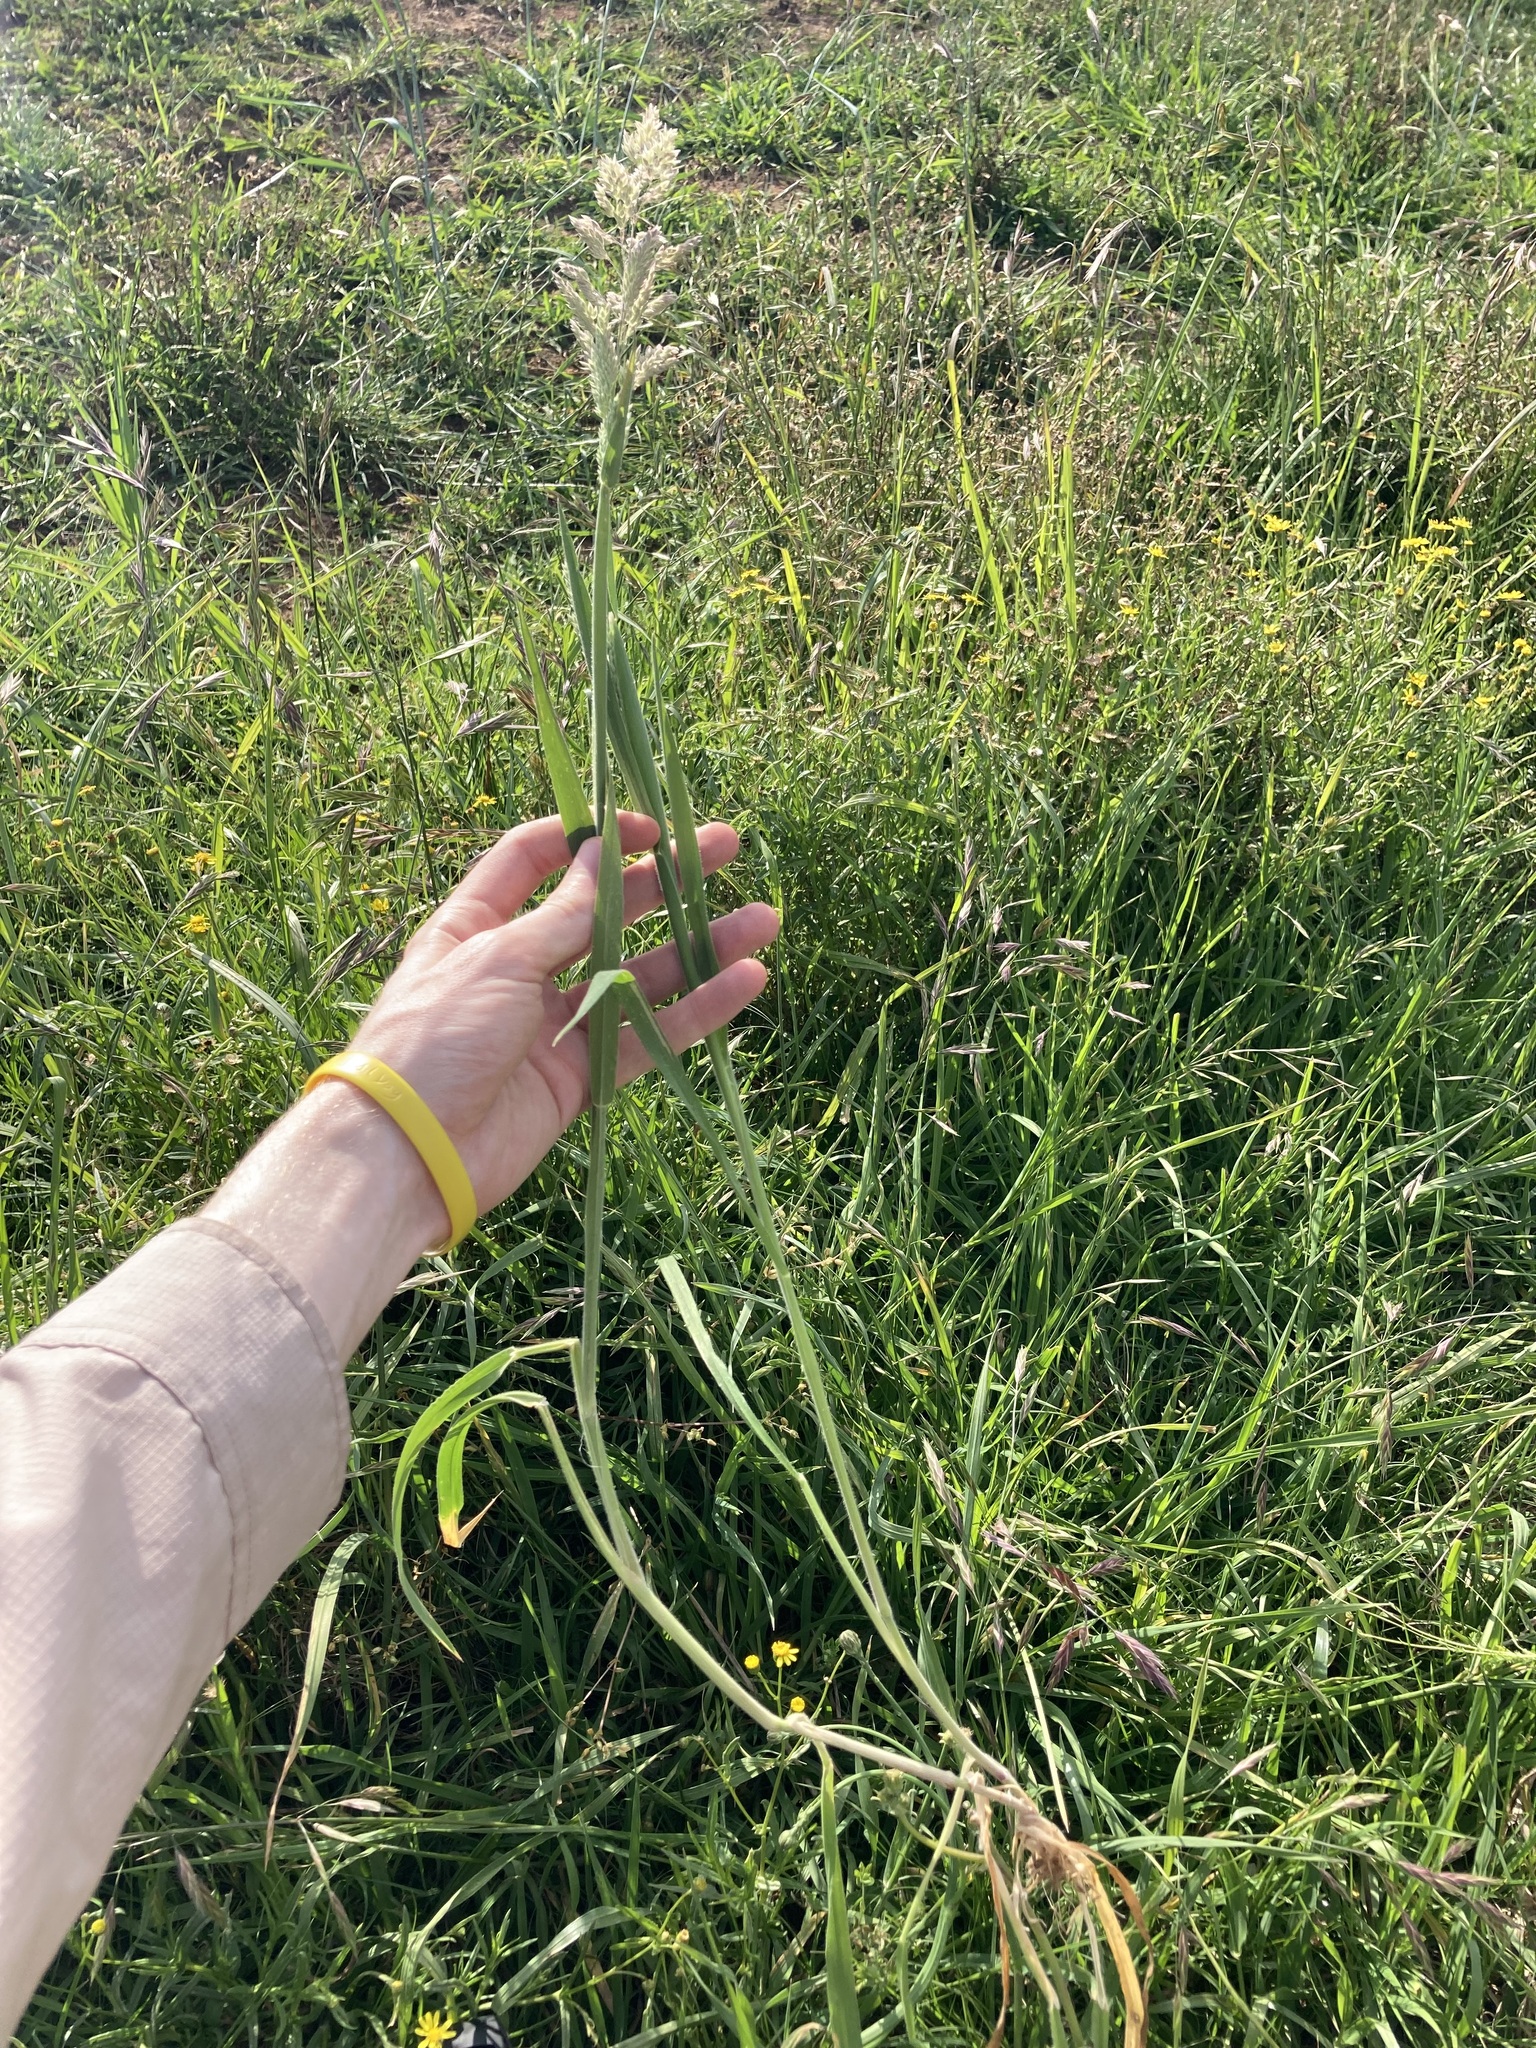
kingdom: Plantae
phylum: Tracheophyta
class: Liliopsida
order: Poales
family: Poaceae
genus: Holcus
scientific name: Holcus lanatus
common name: Yorkshire-fog
